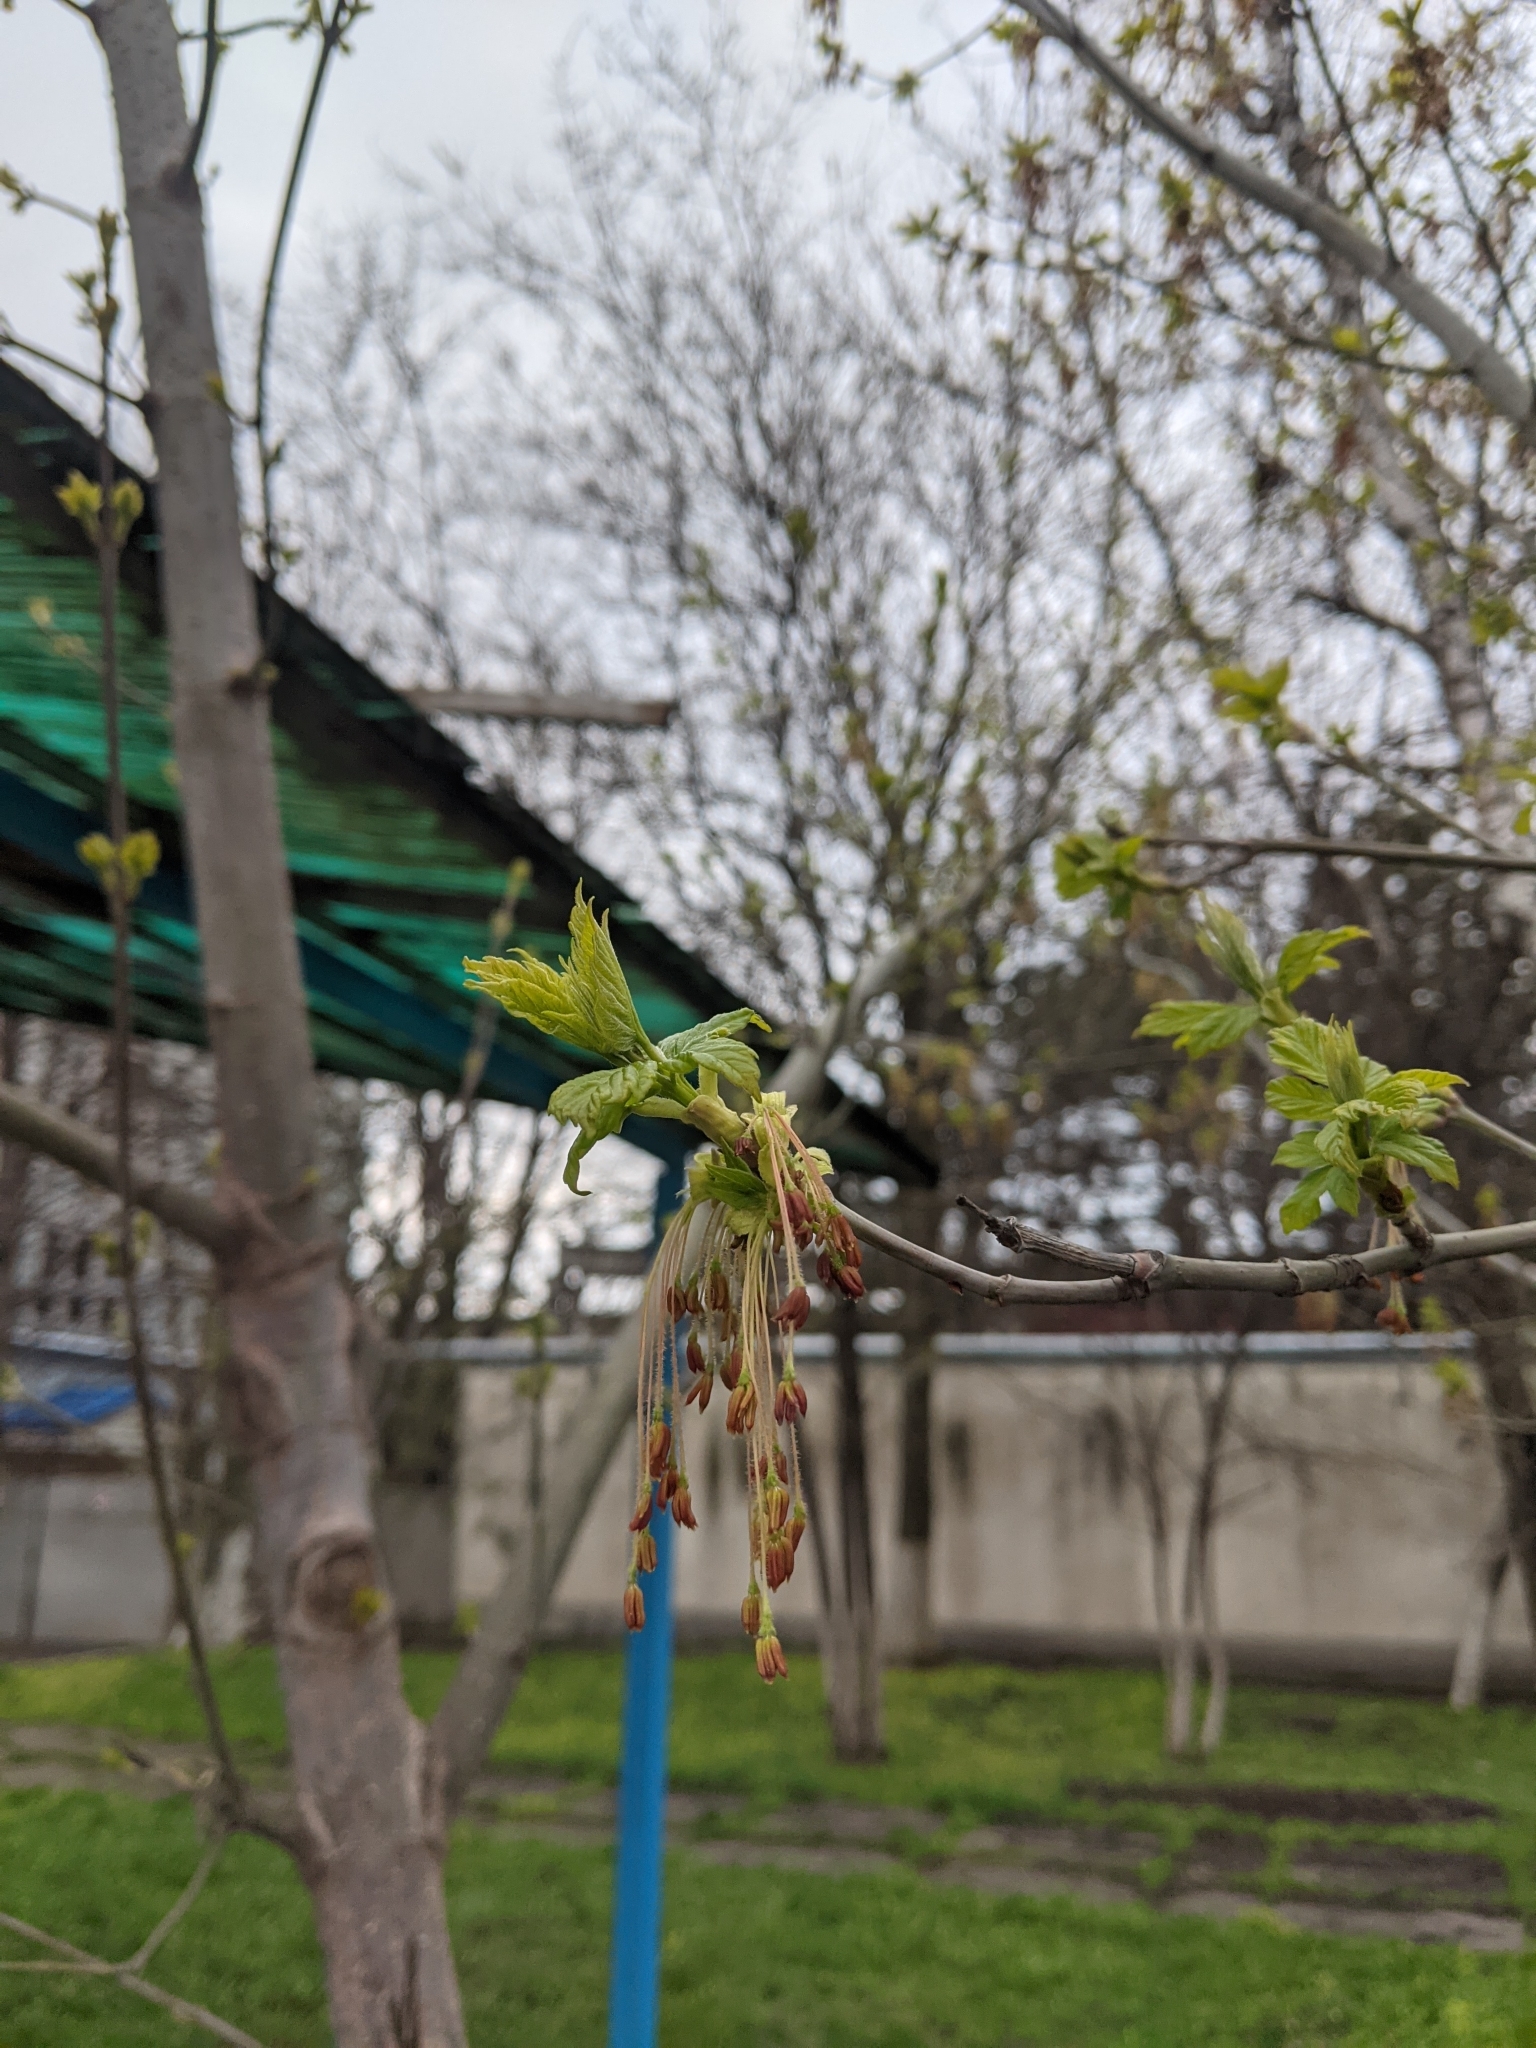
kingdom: Plantae
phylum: Tracheophyta
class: Magnoliopsida
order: Sapindales
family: Sapindaceae
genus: Acer
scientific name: Acer negundo
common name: Ashleaf maple
